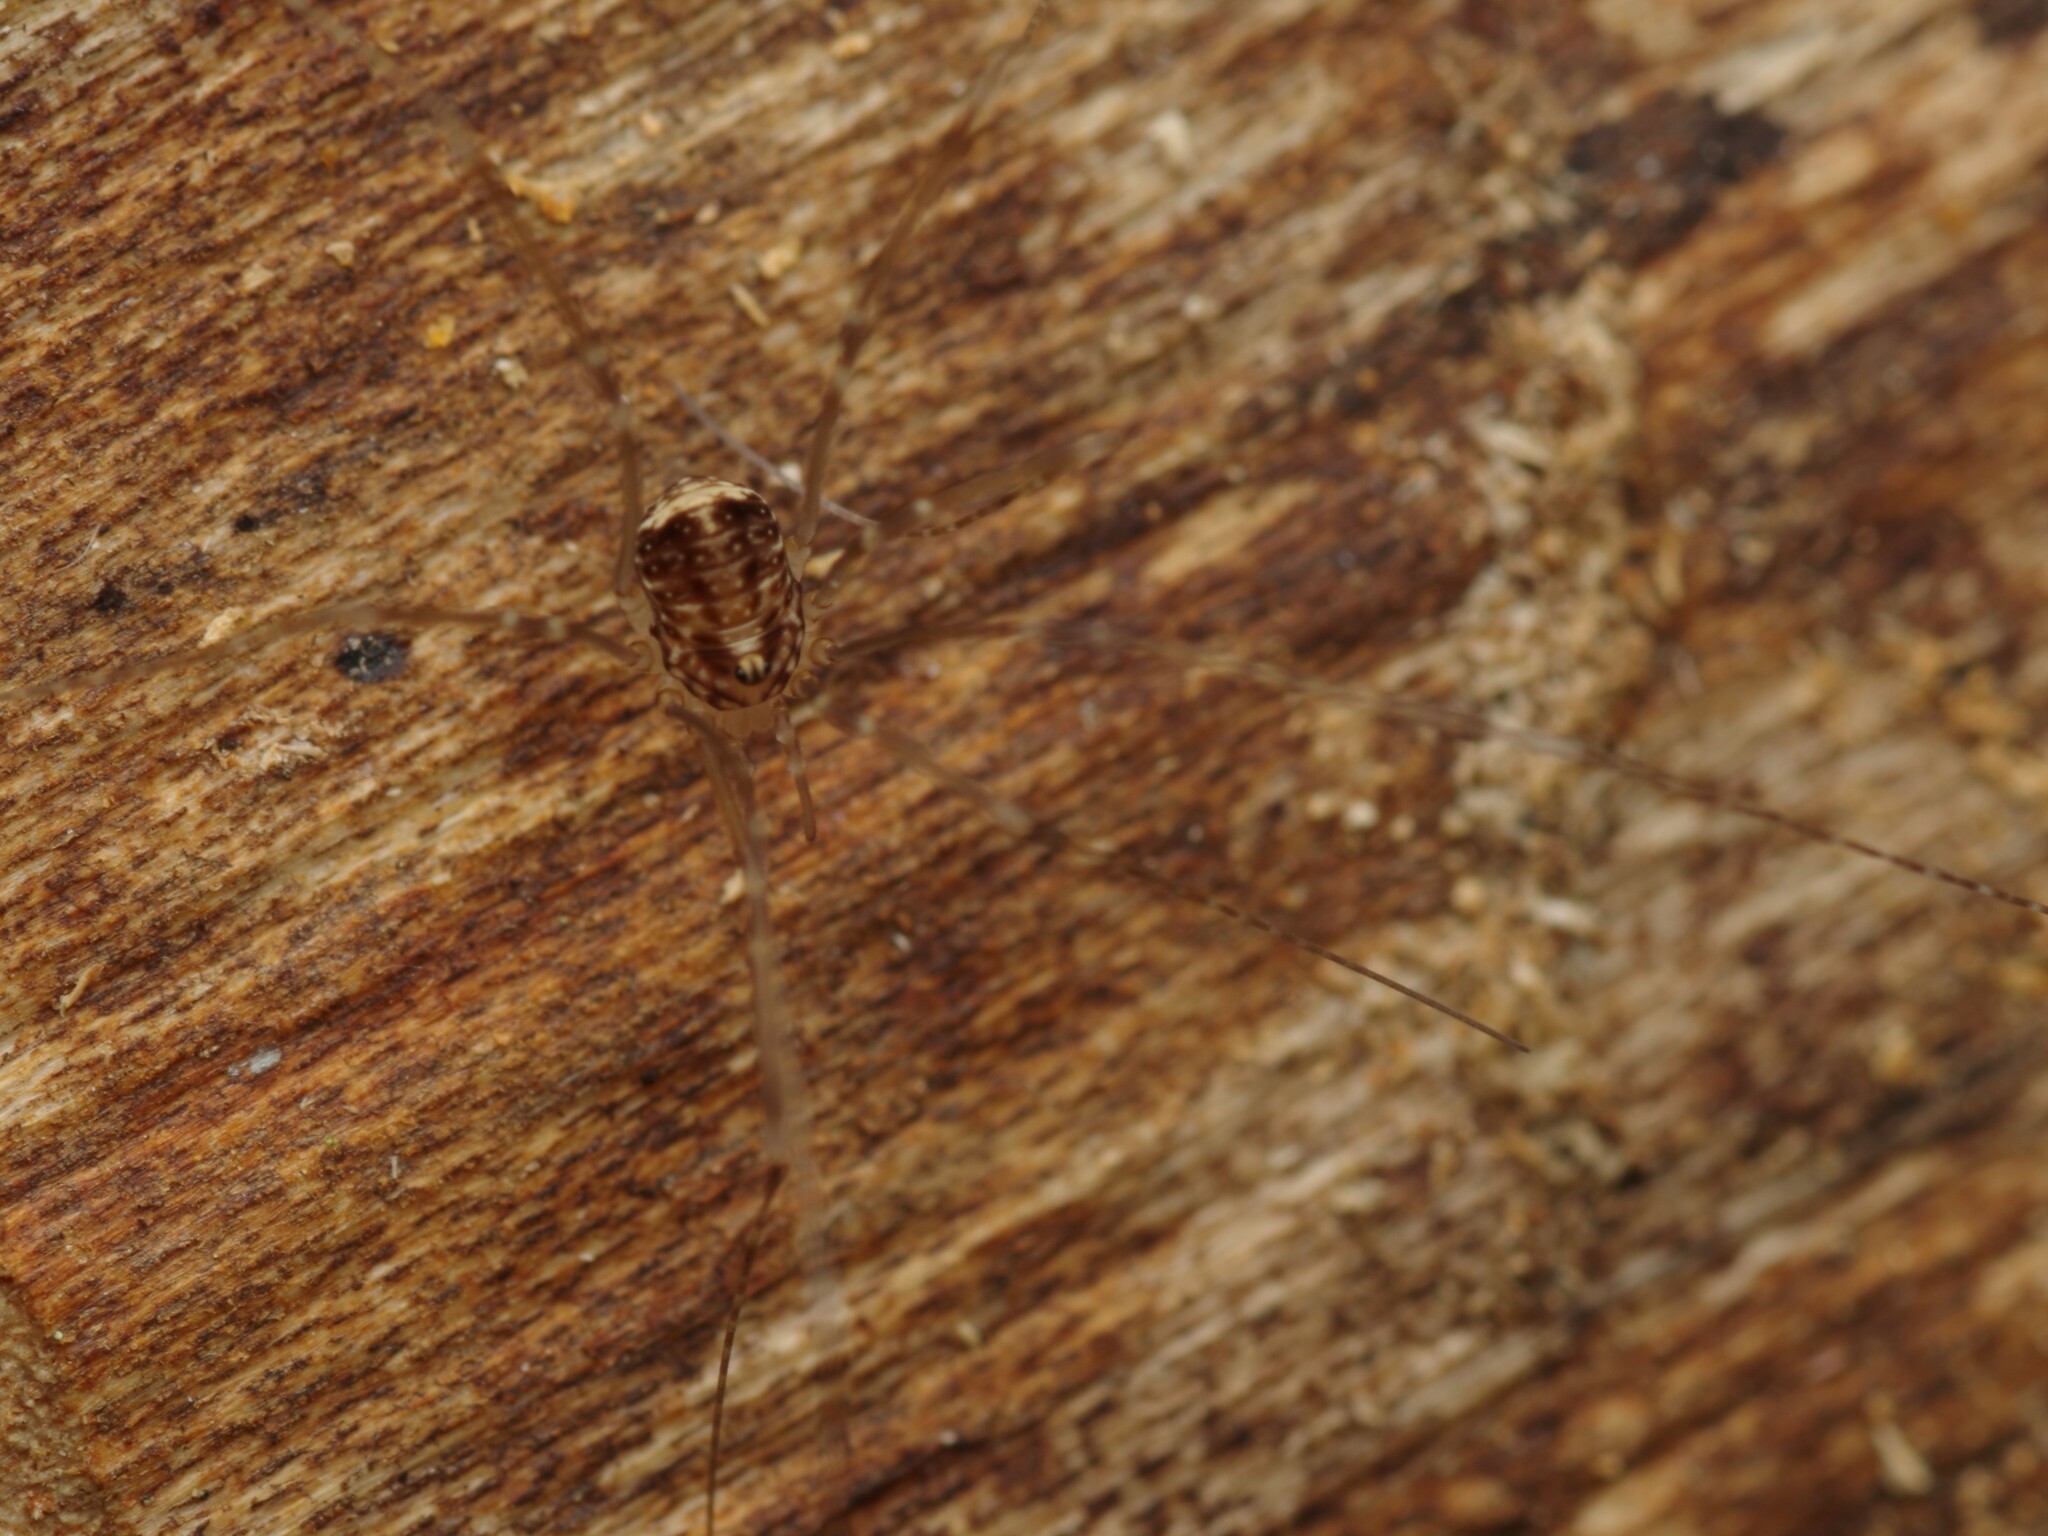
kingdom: Animalia
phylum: Arthropoda
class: Arachnida
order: Opiliones
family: Sclerosomatidae
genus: Leiobunum
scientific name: Leiobunum blackwalli
